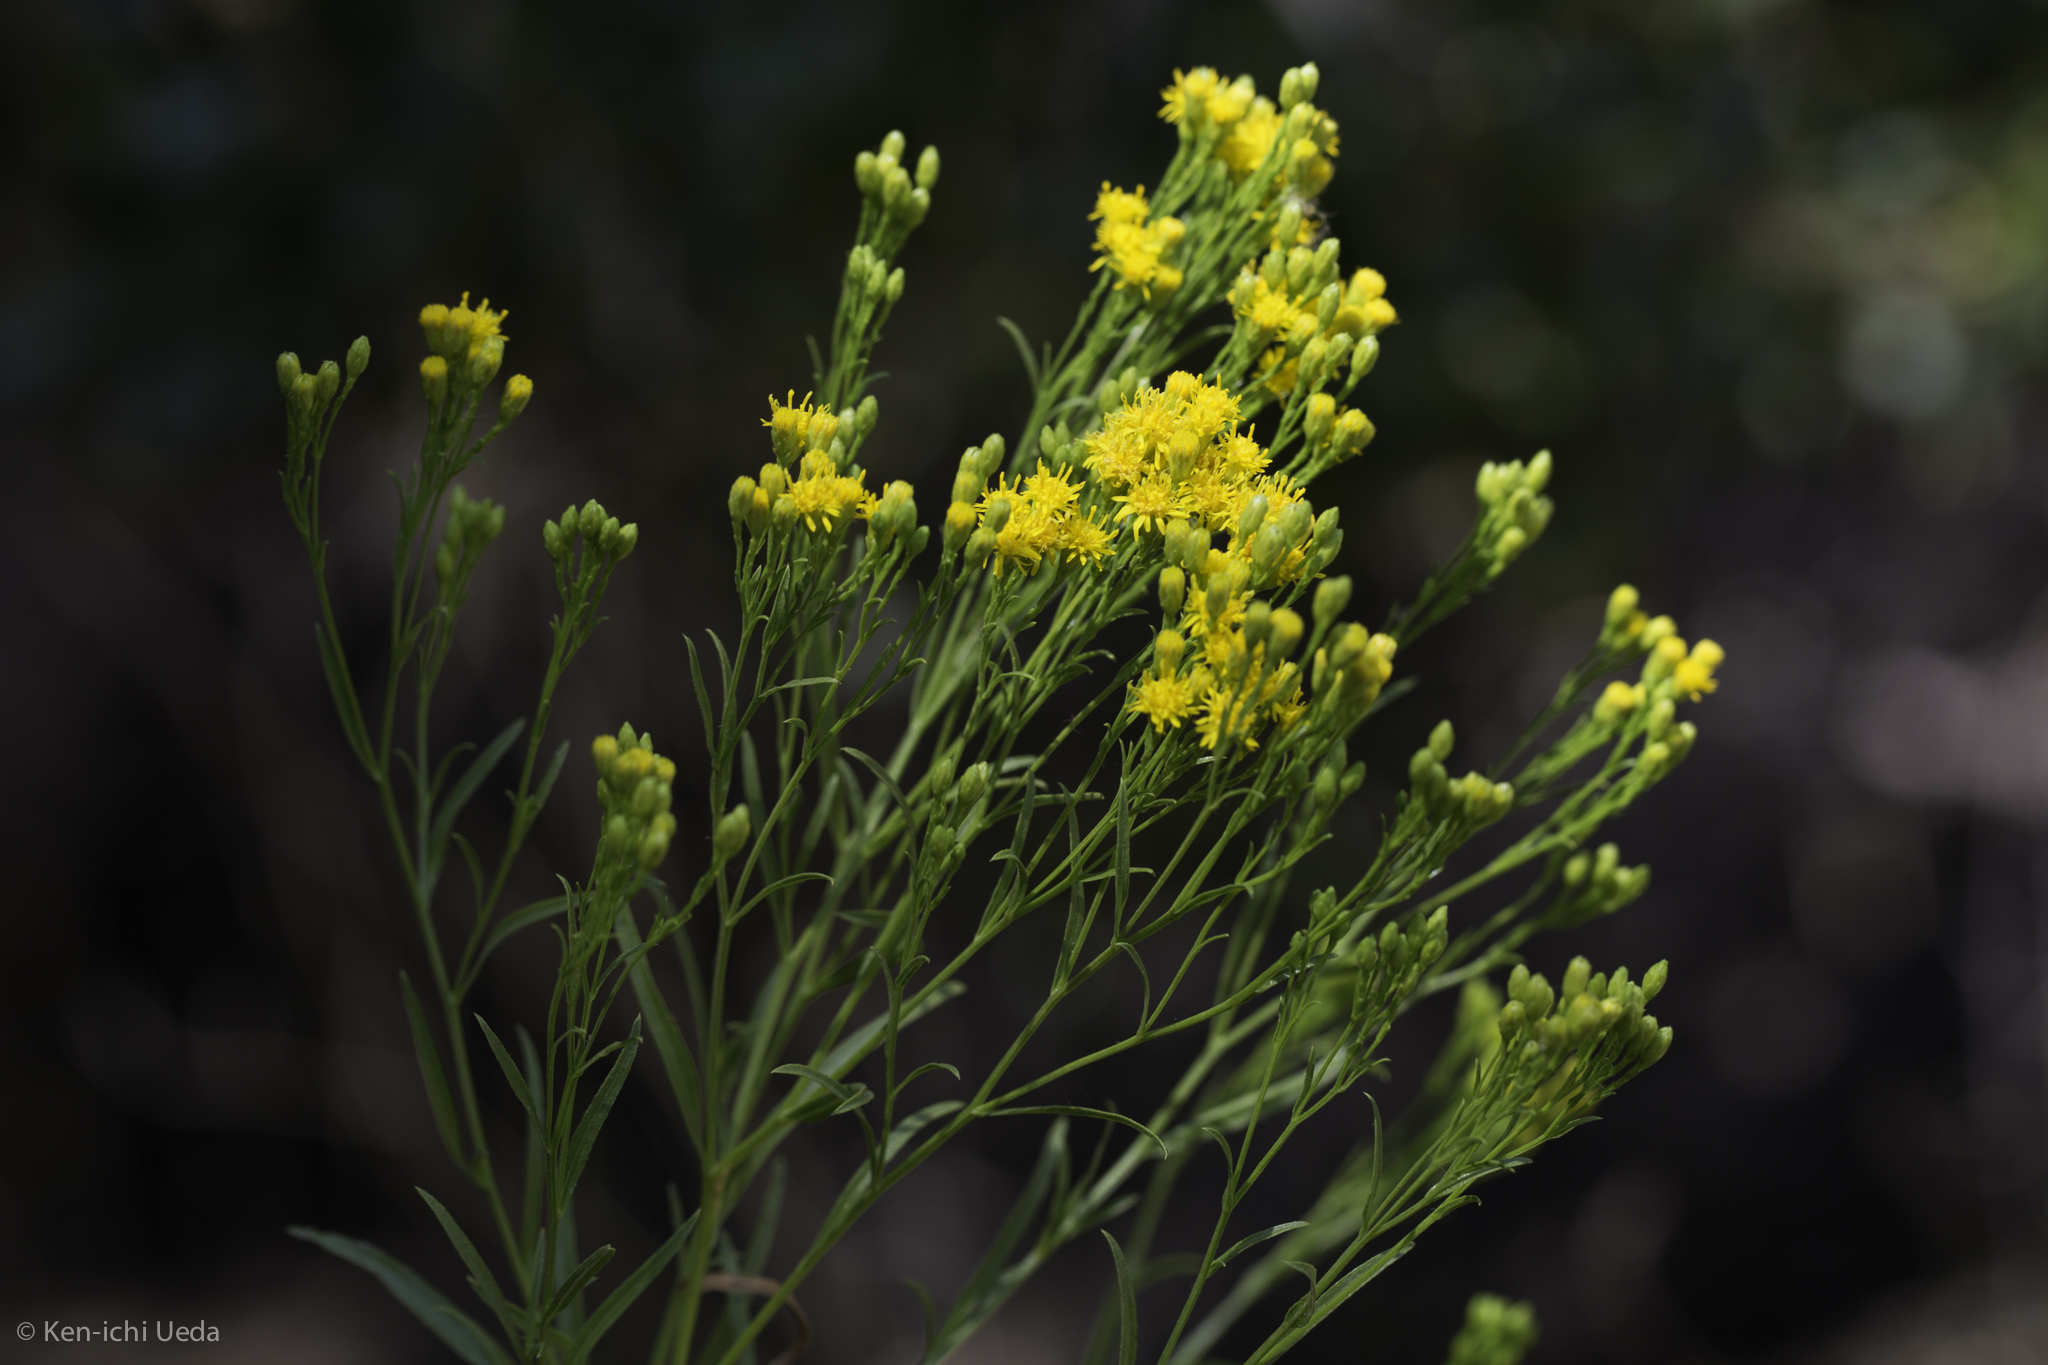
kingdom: Plantae
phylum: Tracheophyta
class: Magnoliopsida
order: Asterales
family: Asteraceae
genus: Euthamia
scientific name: Euthamia occidentalis
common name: Western goldentop
